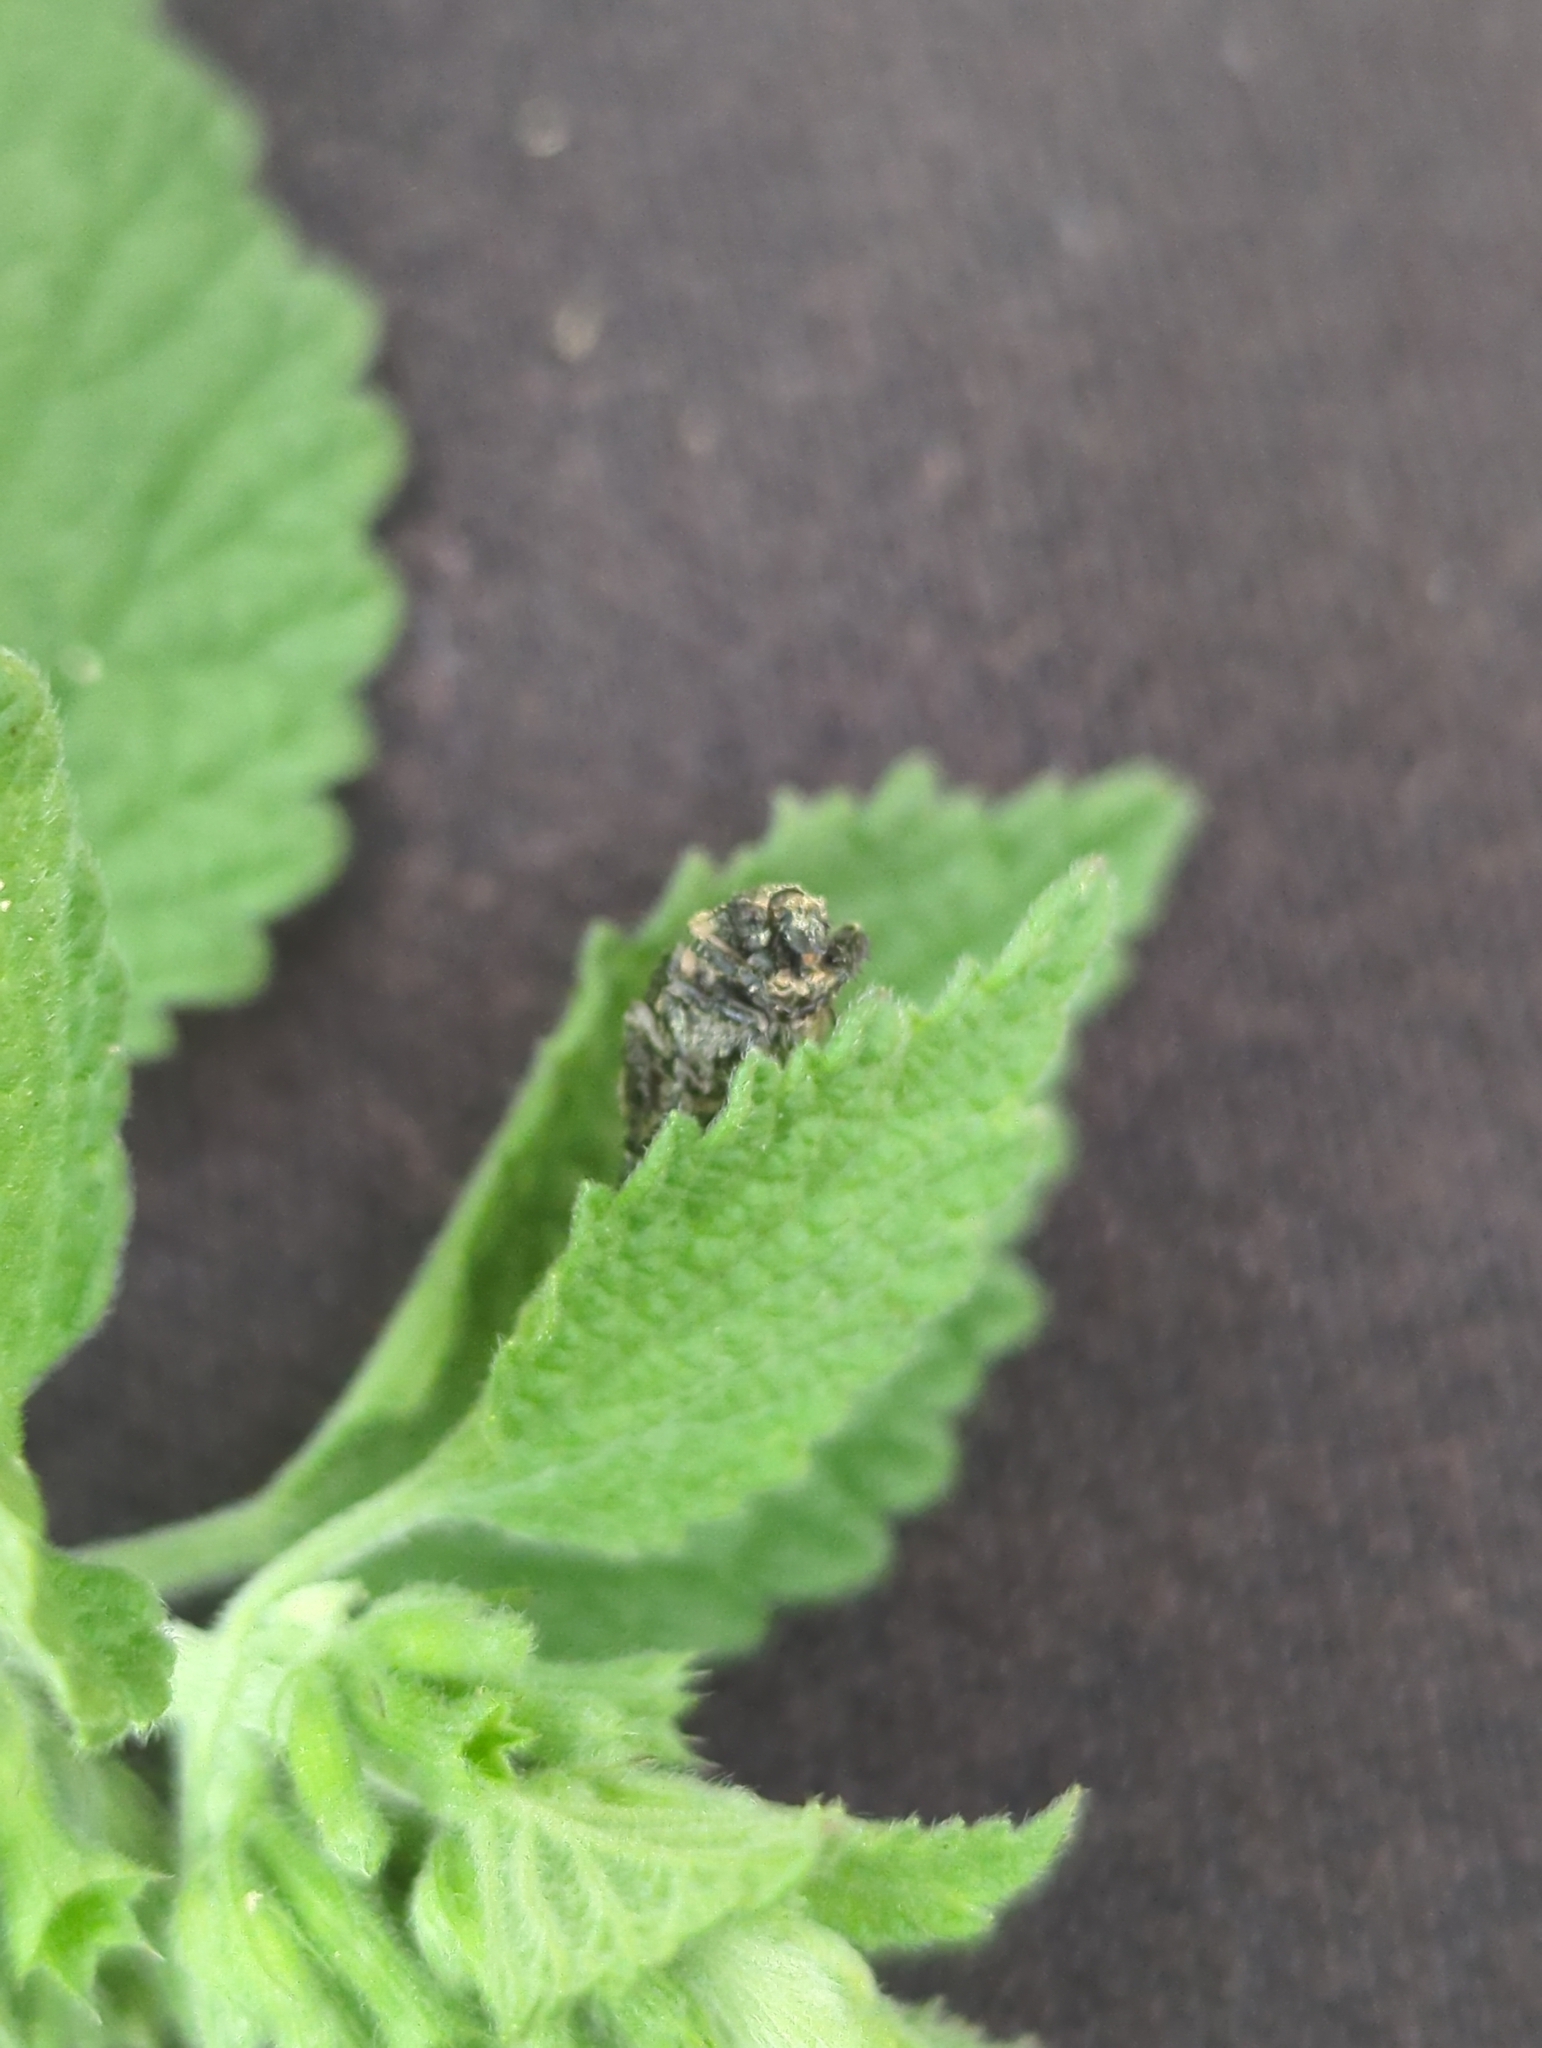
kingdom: Animalia
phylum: Arthropoda
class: Insecta
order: Coleoptera
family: Scarabaeidae
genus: Valgus
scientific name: Valgus hemipterus
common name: Bug flower chafer
